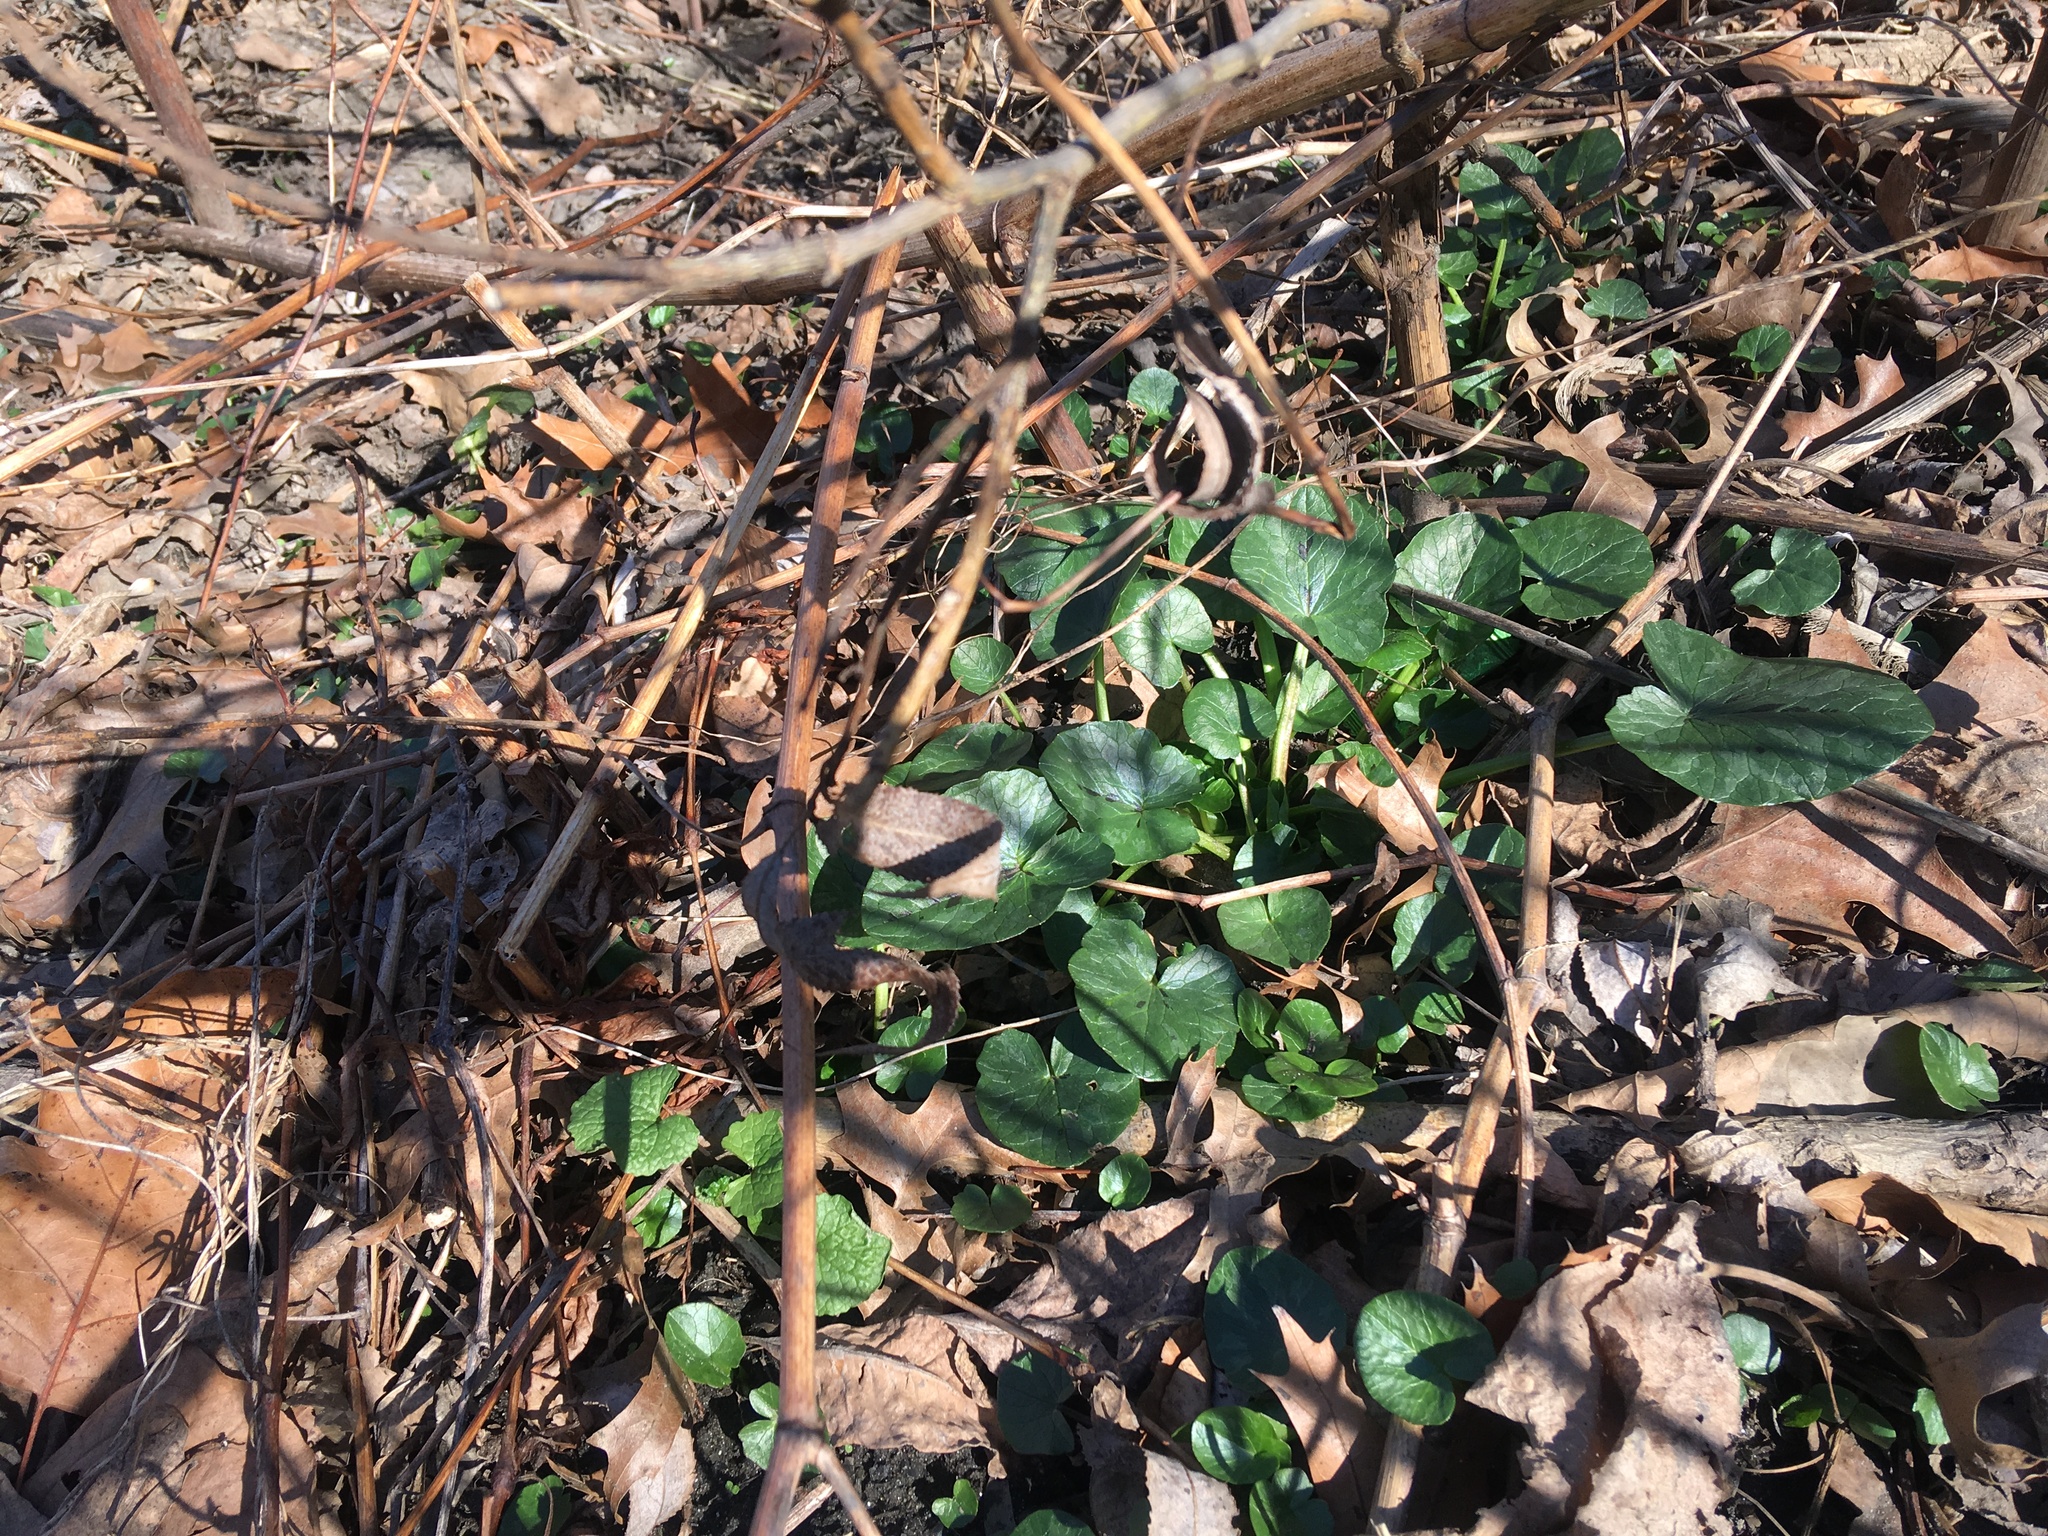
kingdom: Plantae
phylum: Tracheophyta
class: Magnoliopsida
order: Ranunculales
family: Ranunculaceae
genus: Ficaria
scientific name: Ficaria verna
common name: Lesser celandine
